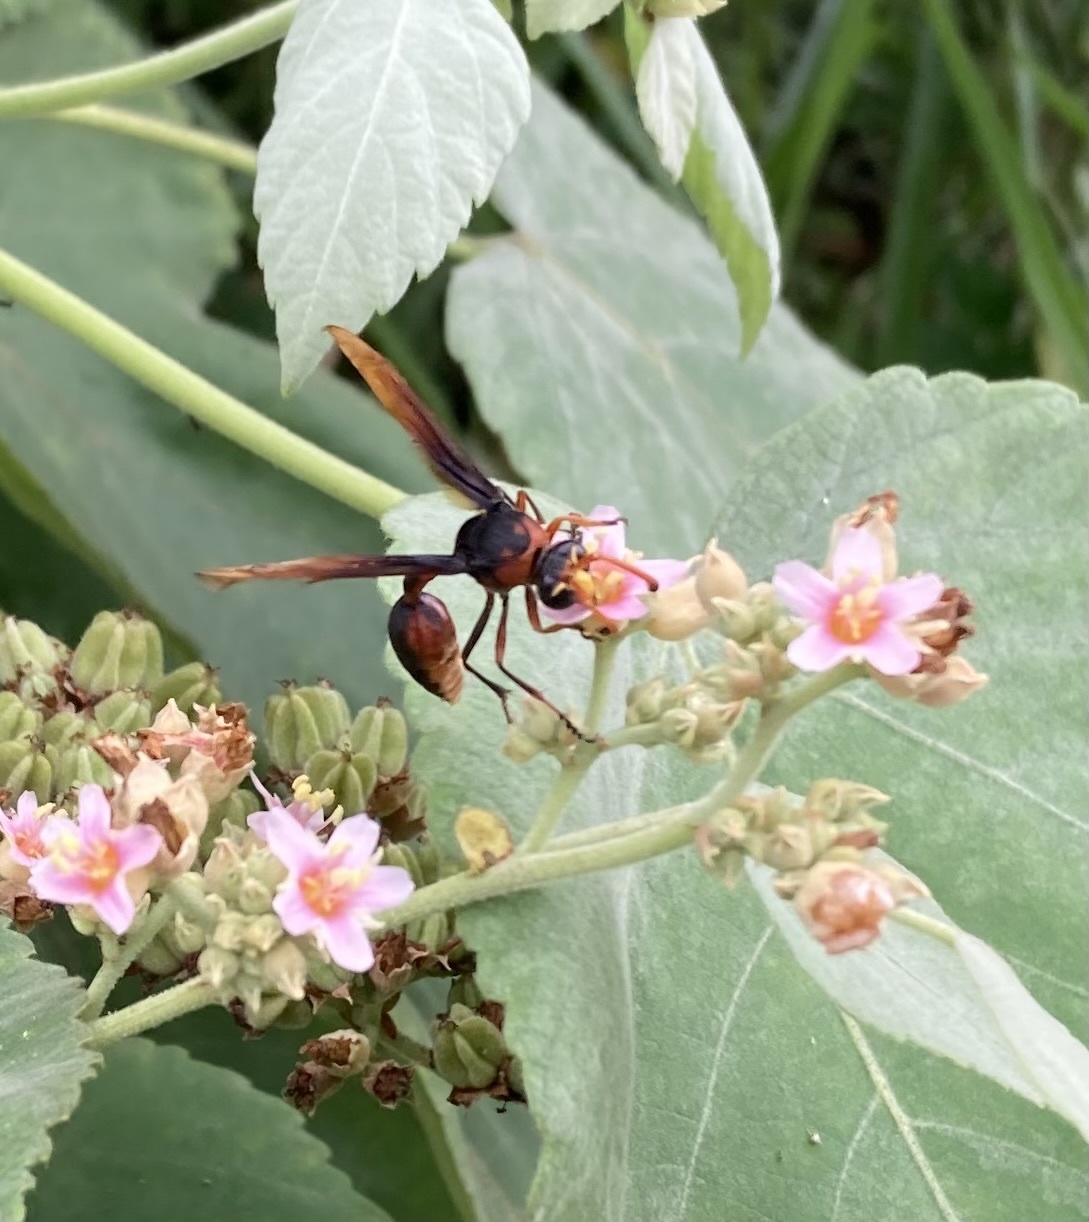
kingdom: Animalia
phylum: Arthropoda
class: Insecta
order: Hymenoptera
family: Eumenidae
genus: Delta
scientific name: Delta pyriforme
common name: Wasp
